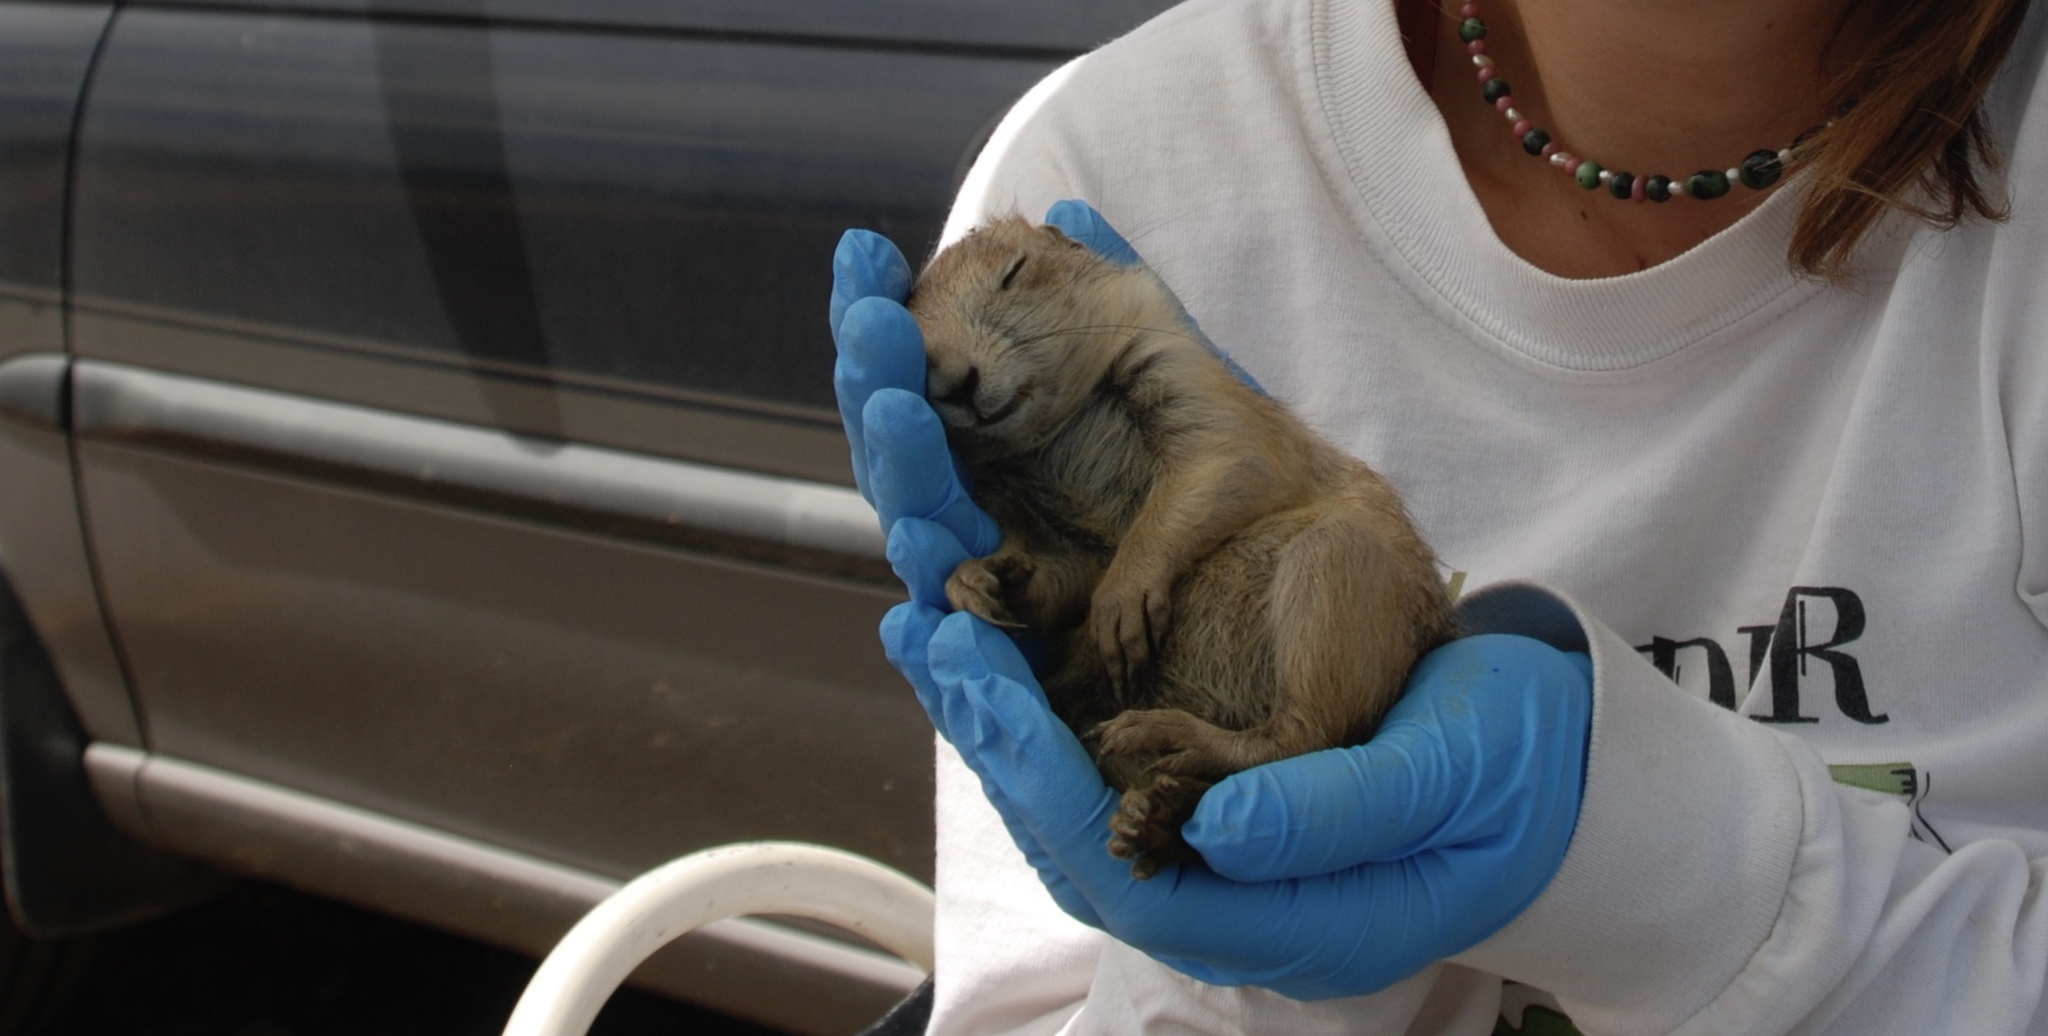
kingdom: Animalia
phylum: Chordata
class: Mammalia
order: Rodentia
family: Sciuridae
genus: Cynomys
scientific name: Cynomys ludovicianus
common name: Black-tailed prairie dog
